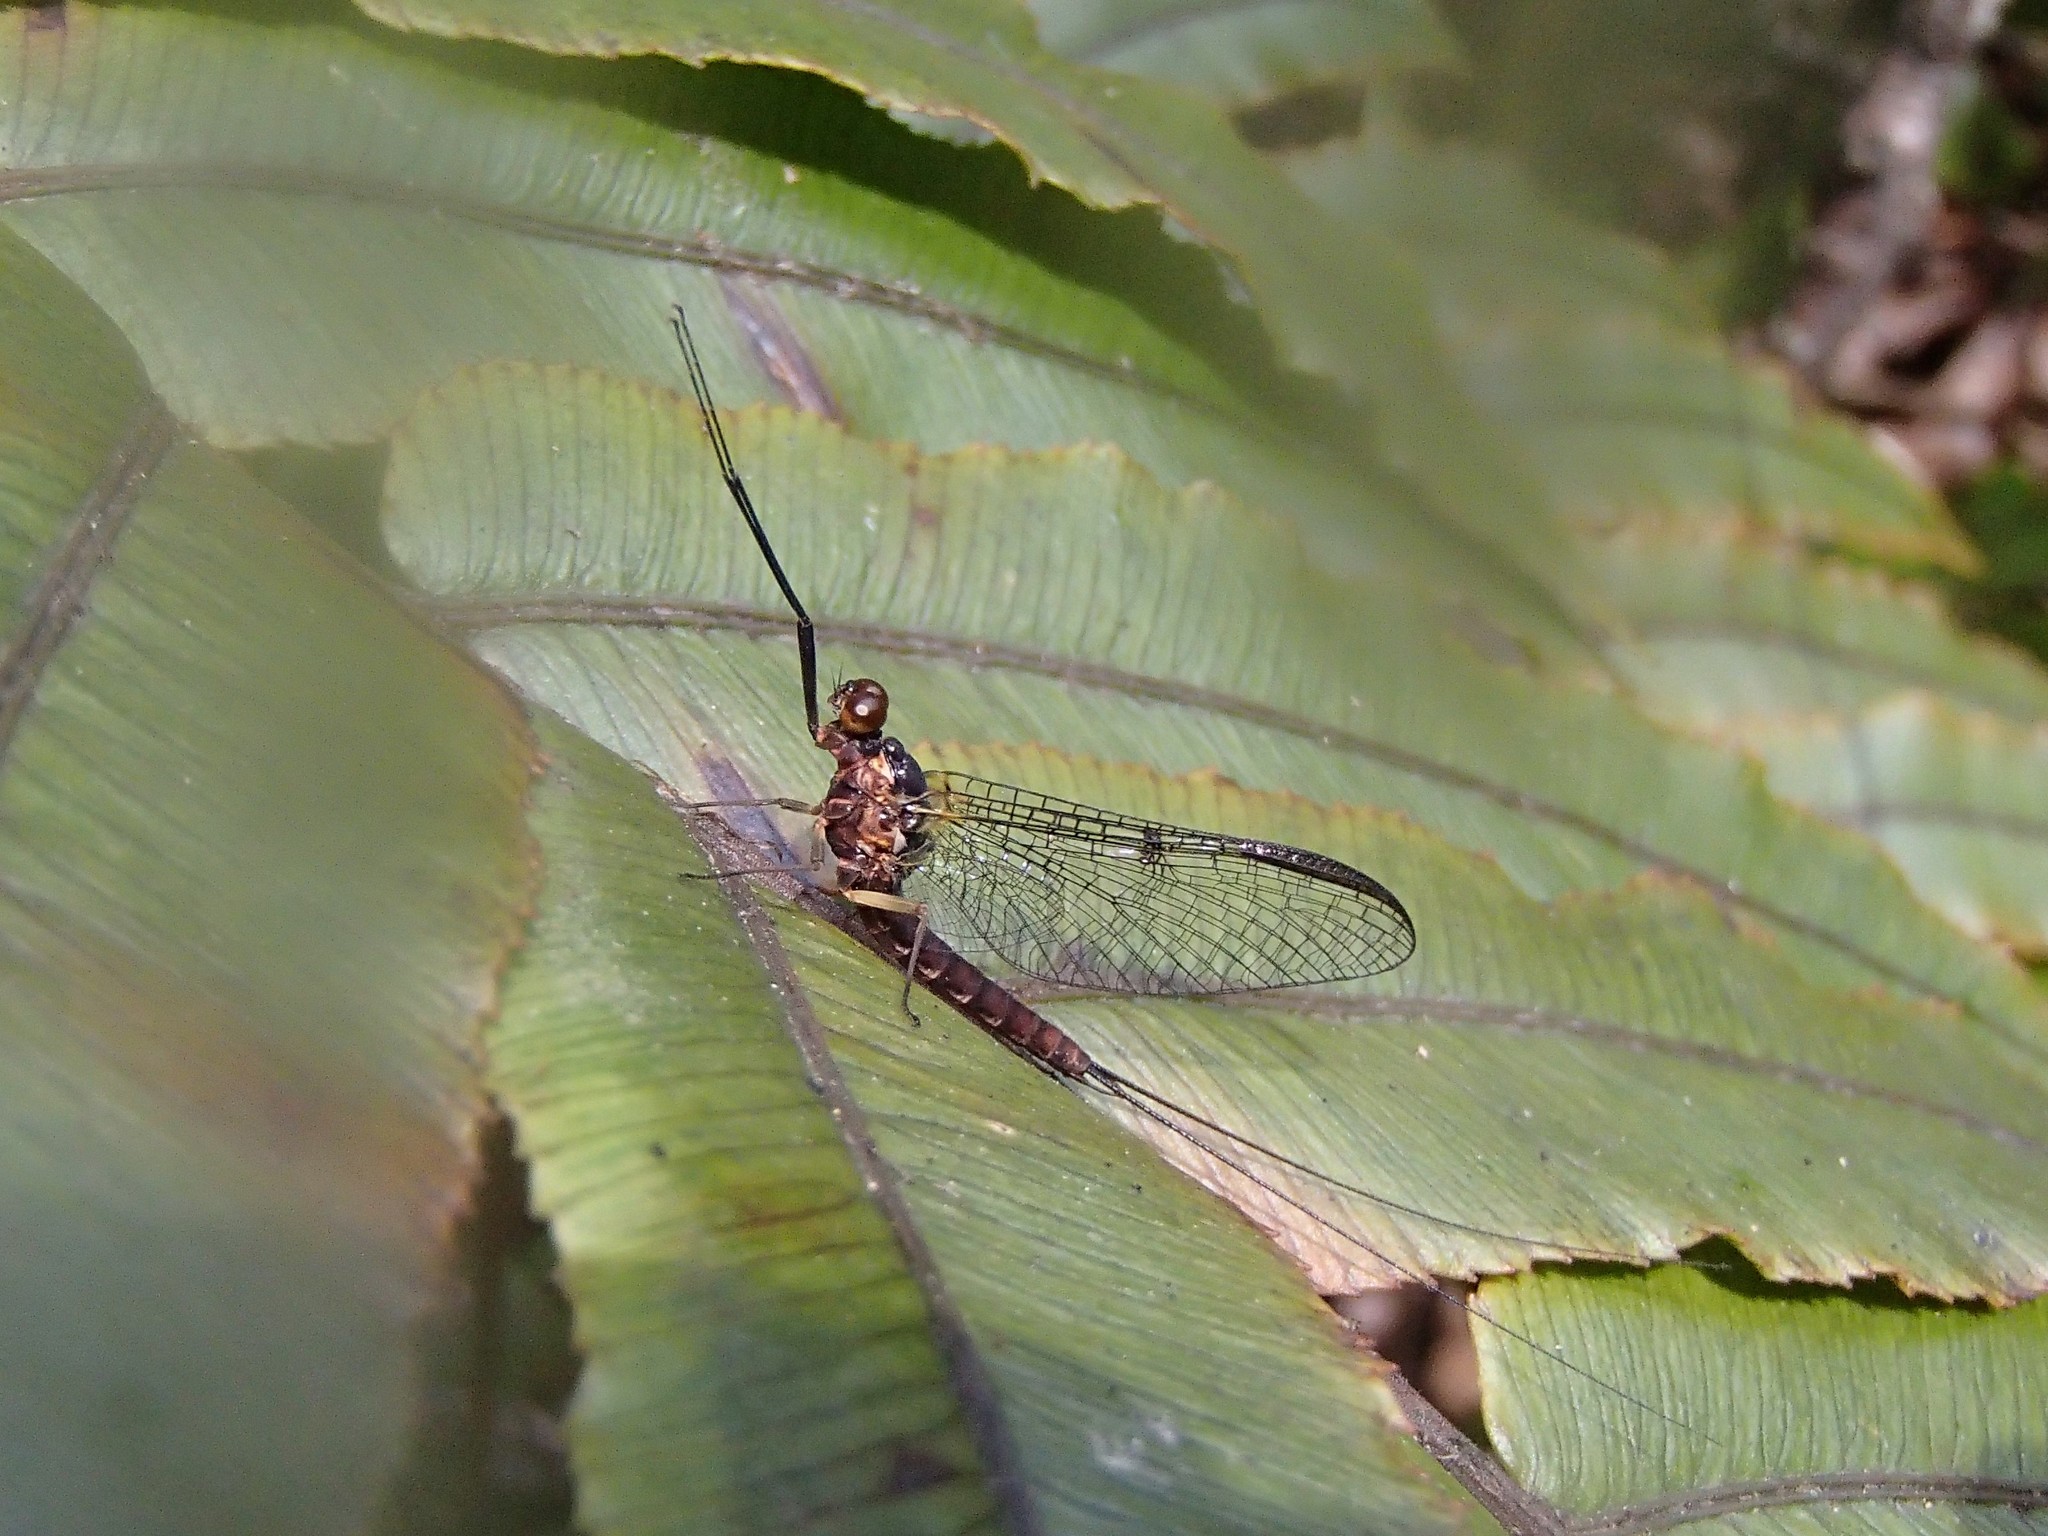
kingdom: Animalia
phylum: Arthropoda
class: Insecta
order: Ephemeroptera
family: Coloburiscidae
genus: Coloburiscus
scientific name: Coloburiscus humeralis
